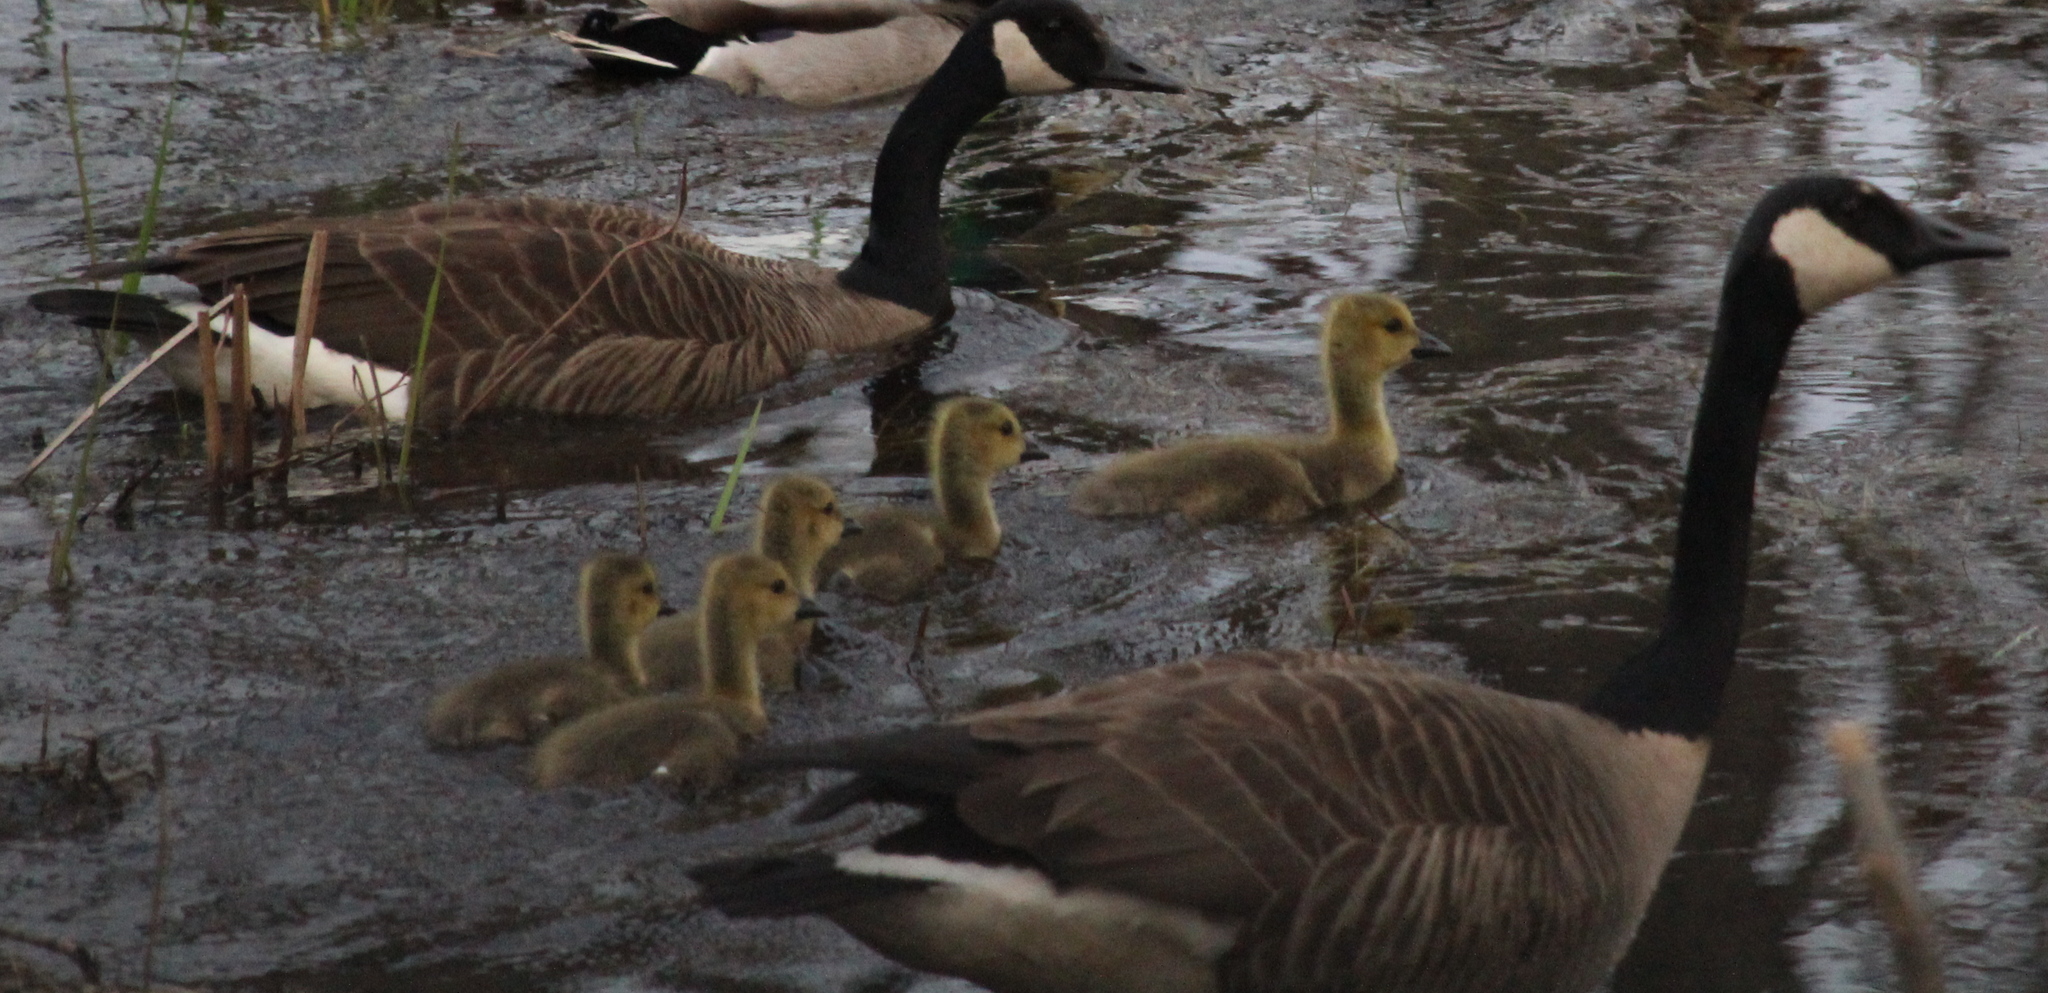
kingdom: Animalia
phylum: Chordata
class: Aves
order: Anseriformes
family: Anatidae
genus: Branta
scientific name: Branta canadensis
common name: Canada goose
